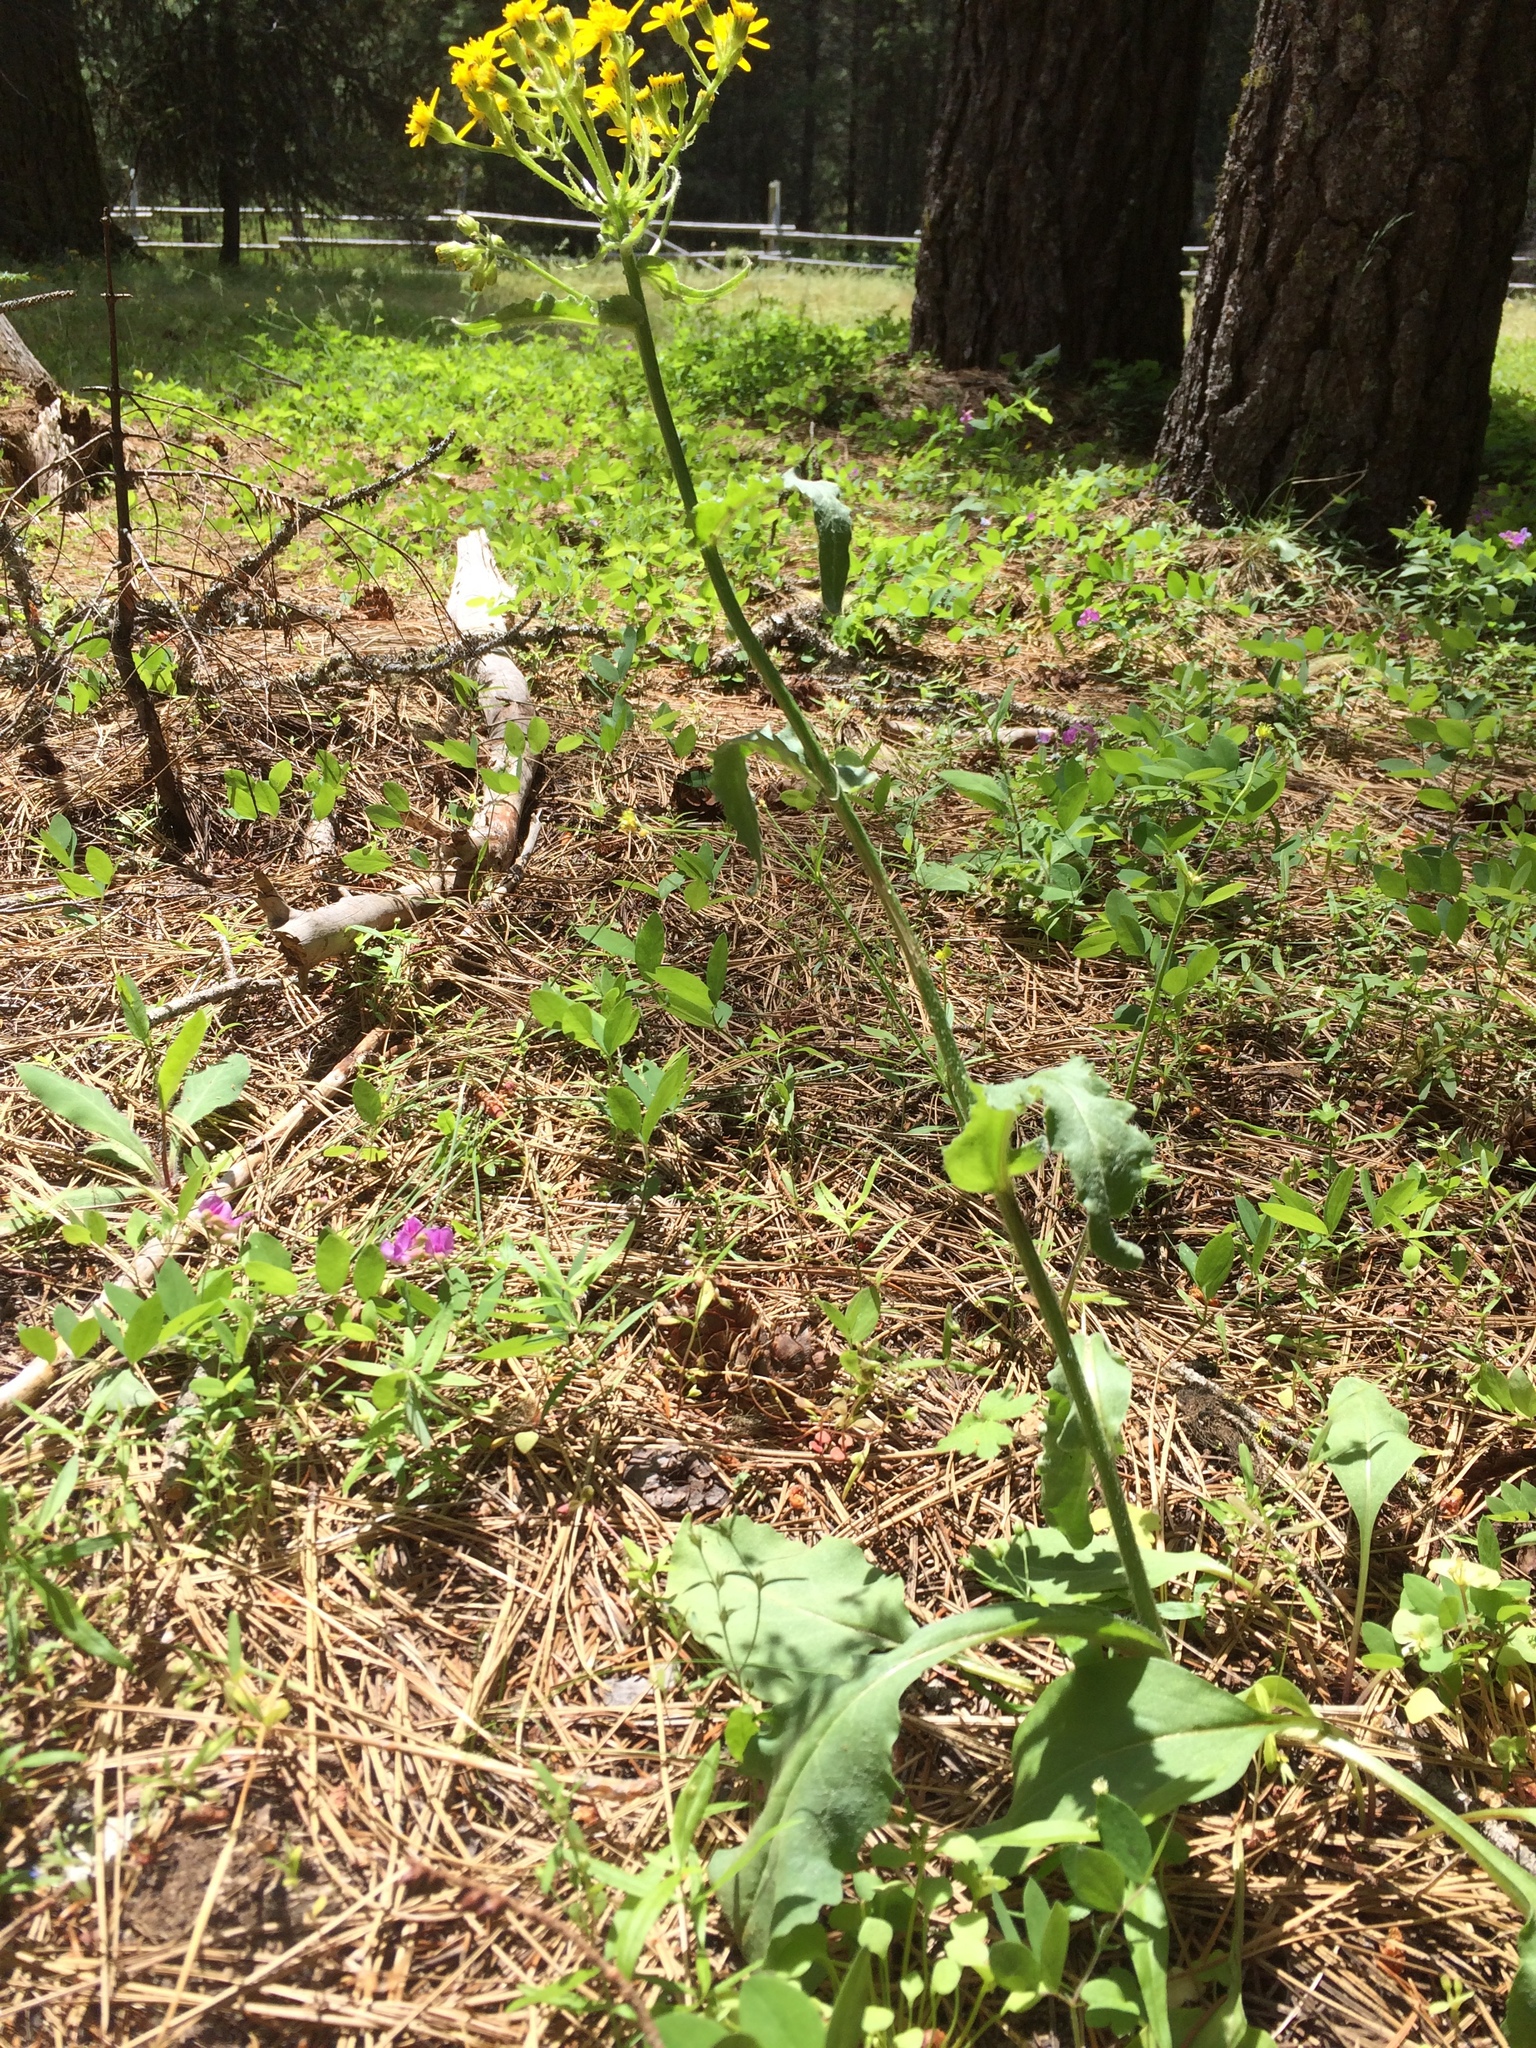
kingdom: Plantae
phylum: Tracheophyta
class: Magnoliopsida
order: Asterales
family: Asteraceae
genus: Senecio
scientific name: Senecio integerrimus
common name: Gaugeplant
